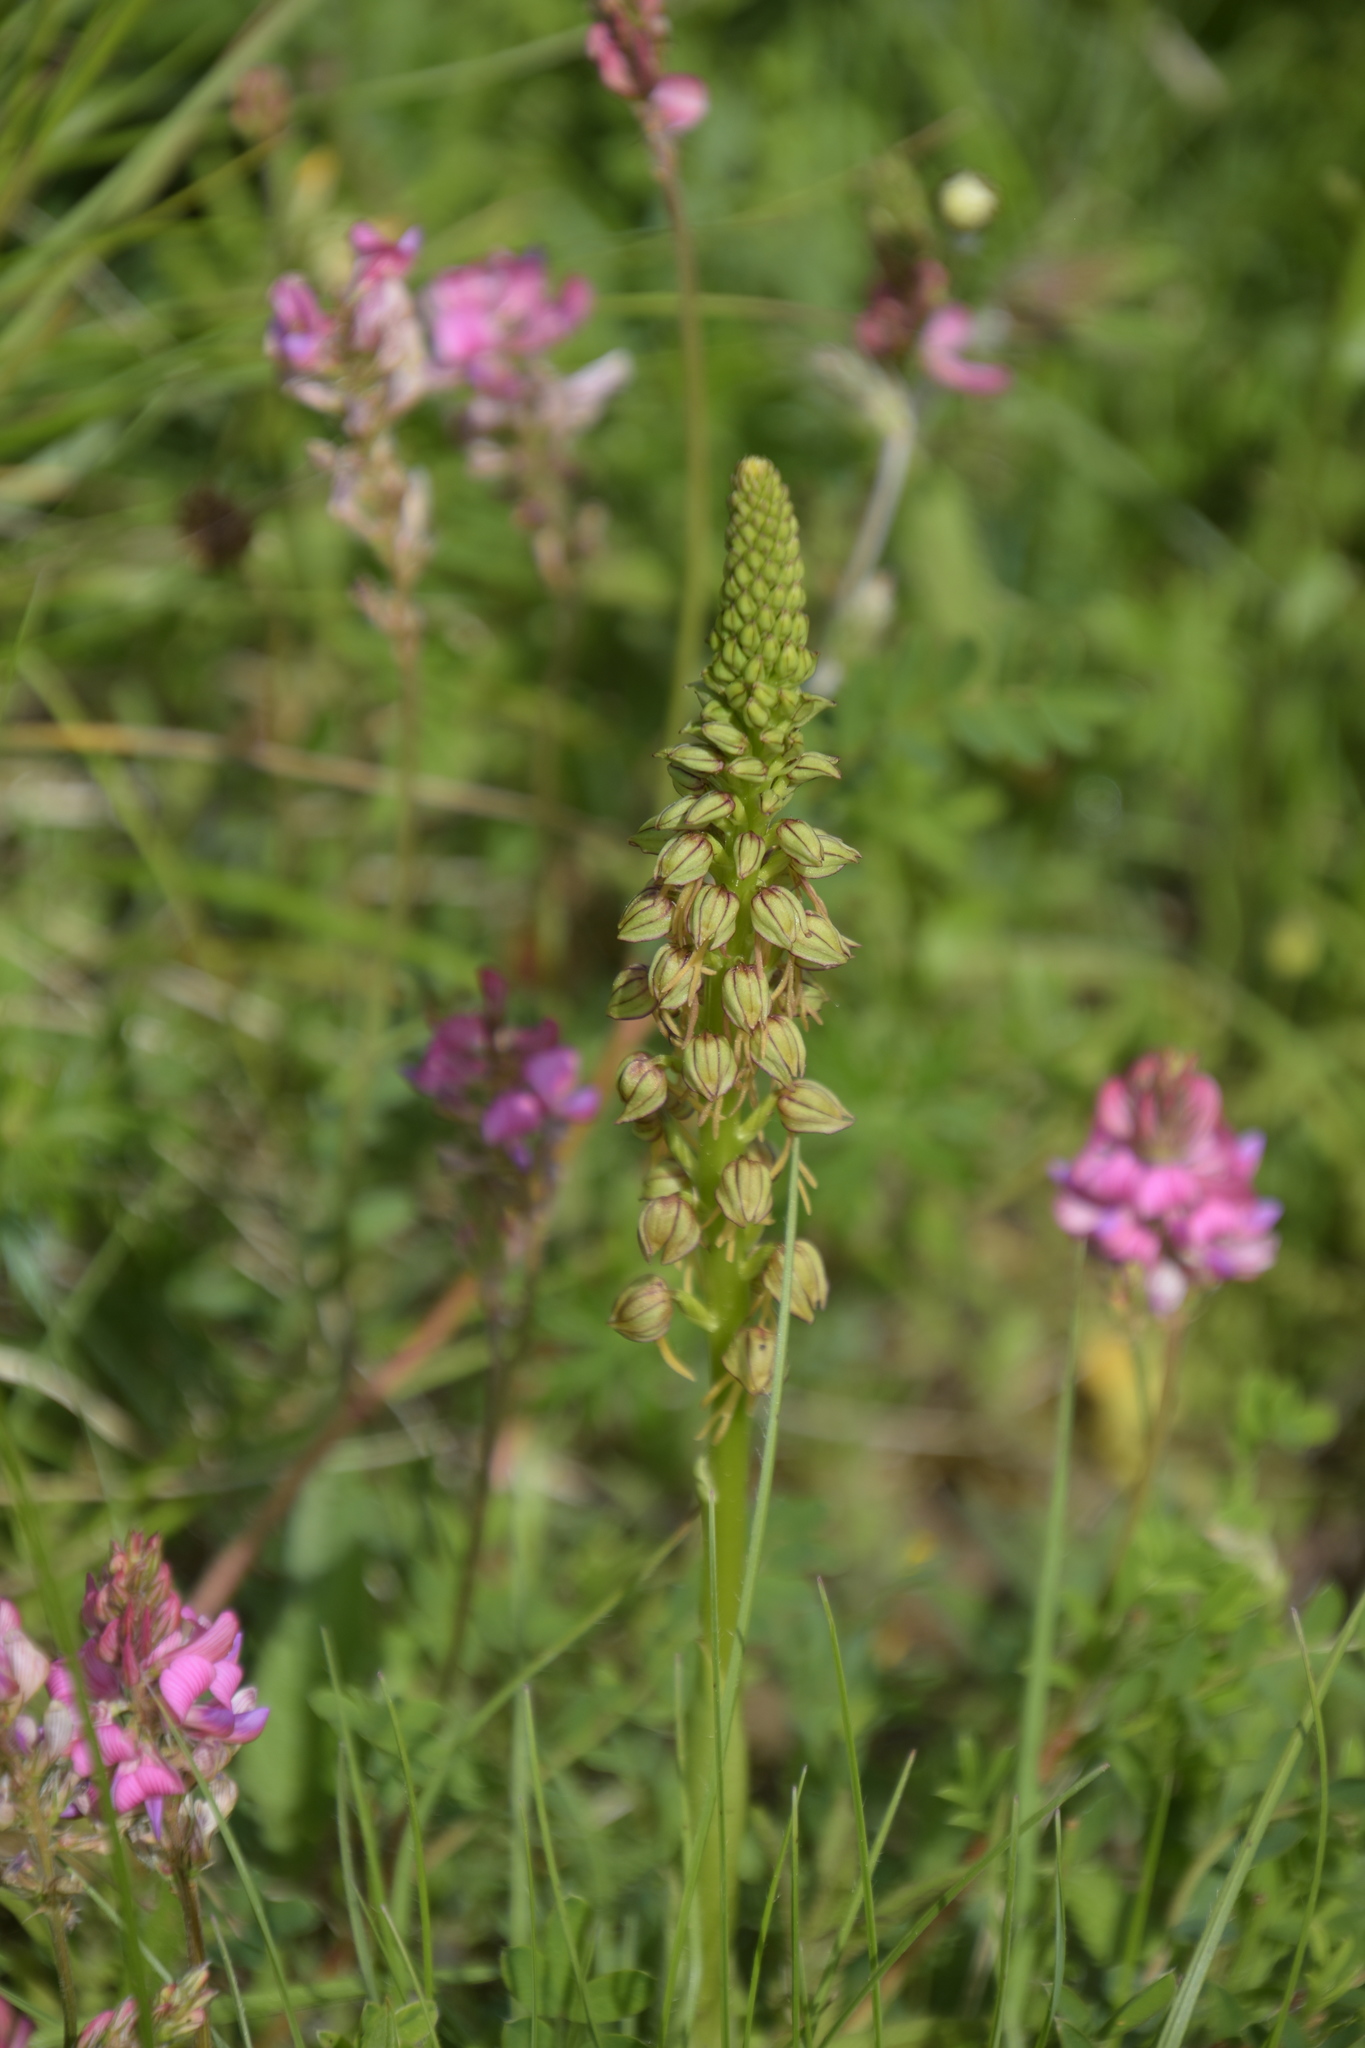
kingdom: Plantae
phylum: Tracheophyta
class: Liliopsida
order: Asparagales
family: Orchidaceae
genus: Orchis
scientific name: Orchis anthropophora
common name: Man orchid
